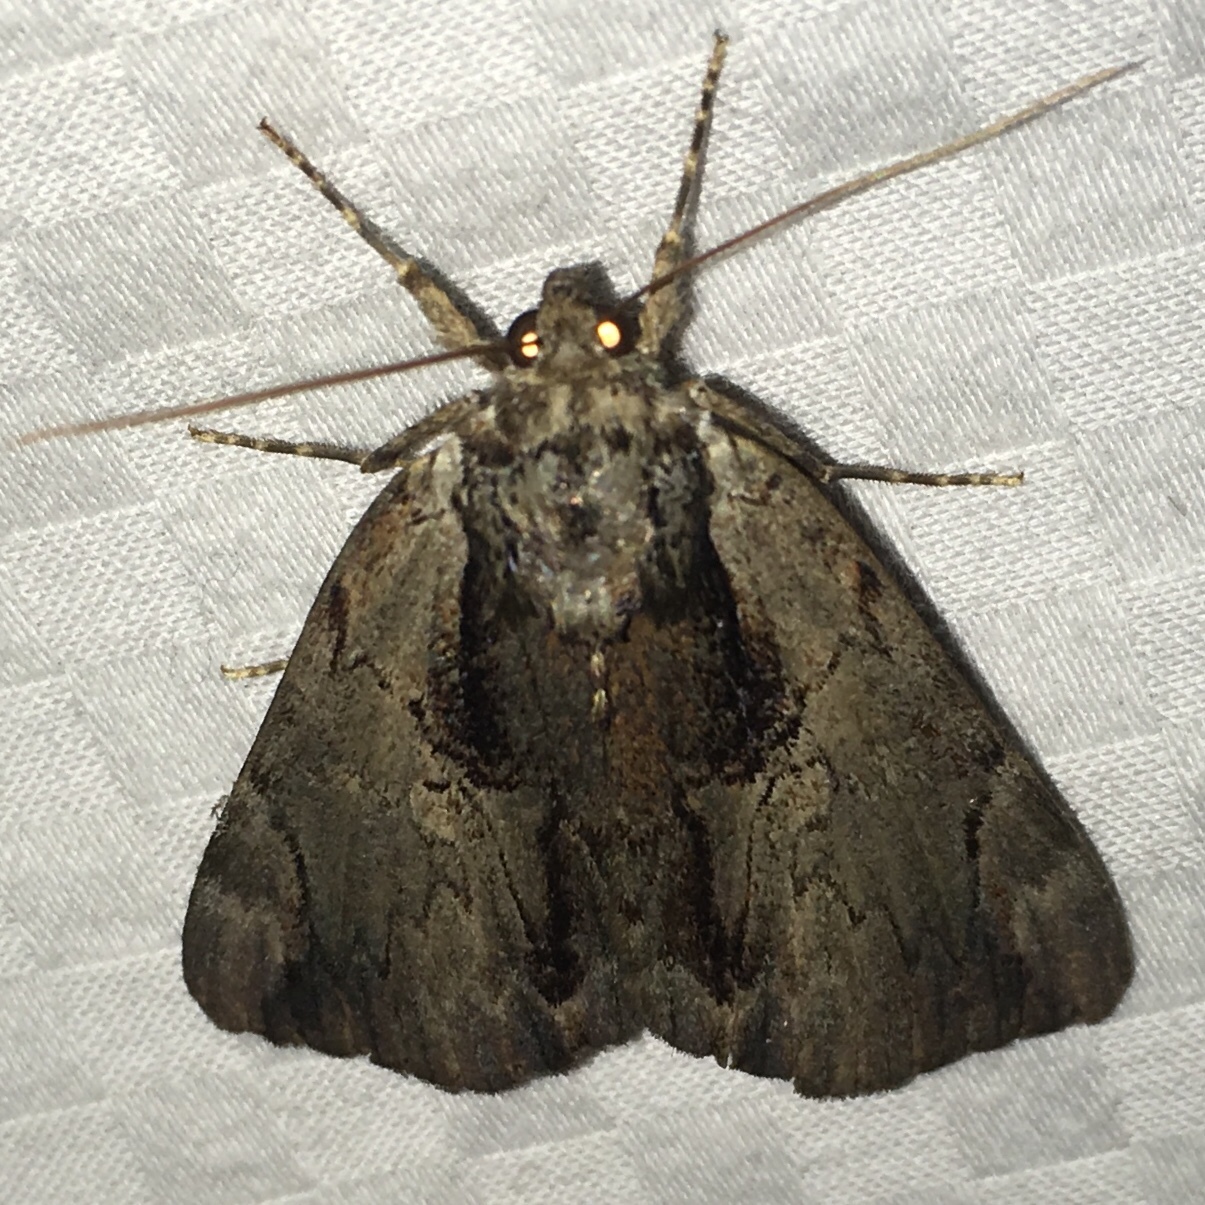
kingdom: Animalia
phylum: Arthropoda
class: Insecta
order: Lepidoptera
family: Erebidae
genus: Catocala
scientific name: Catocala ultronia
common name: Ultronia underwing
